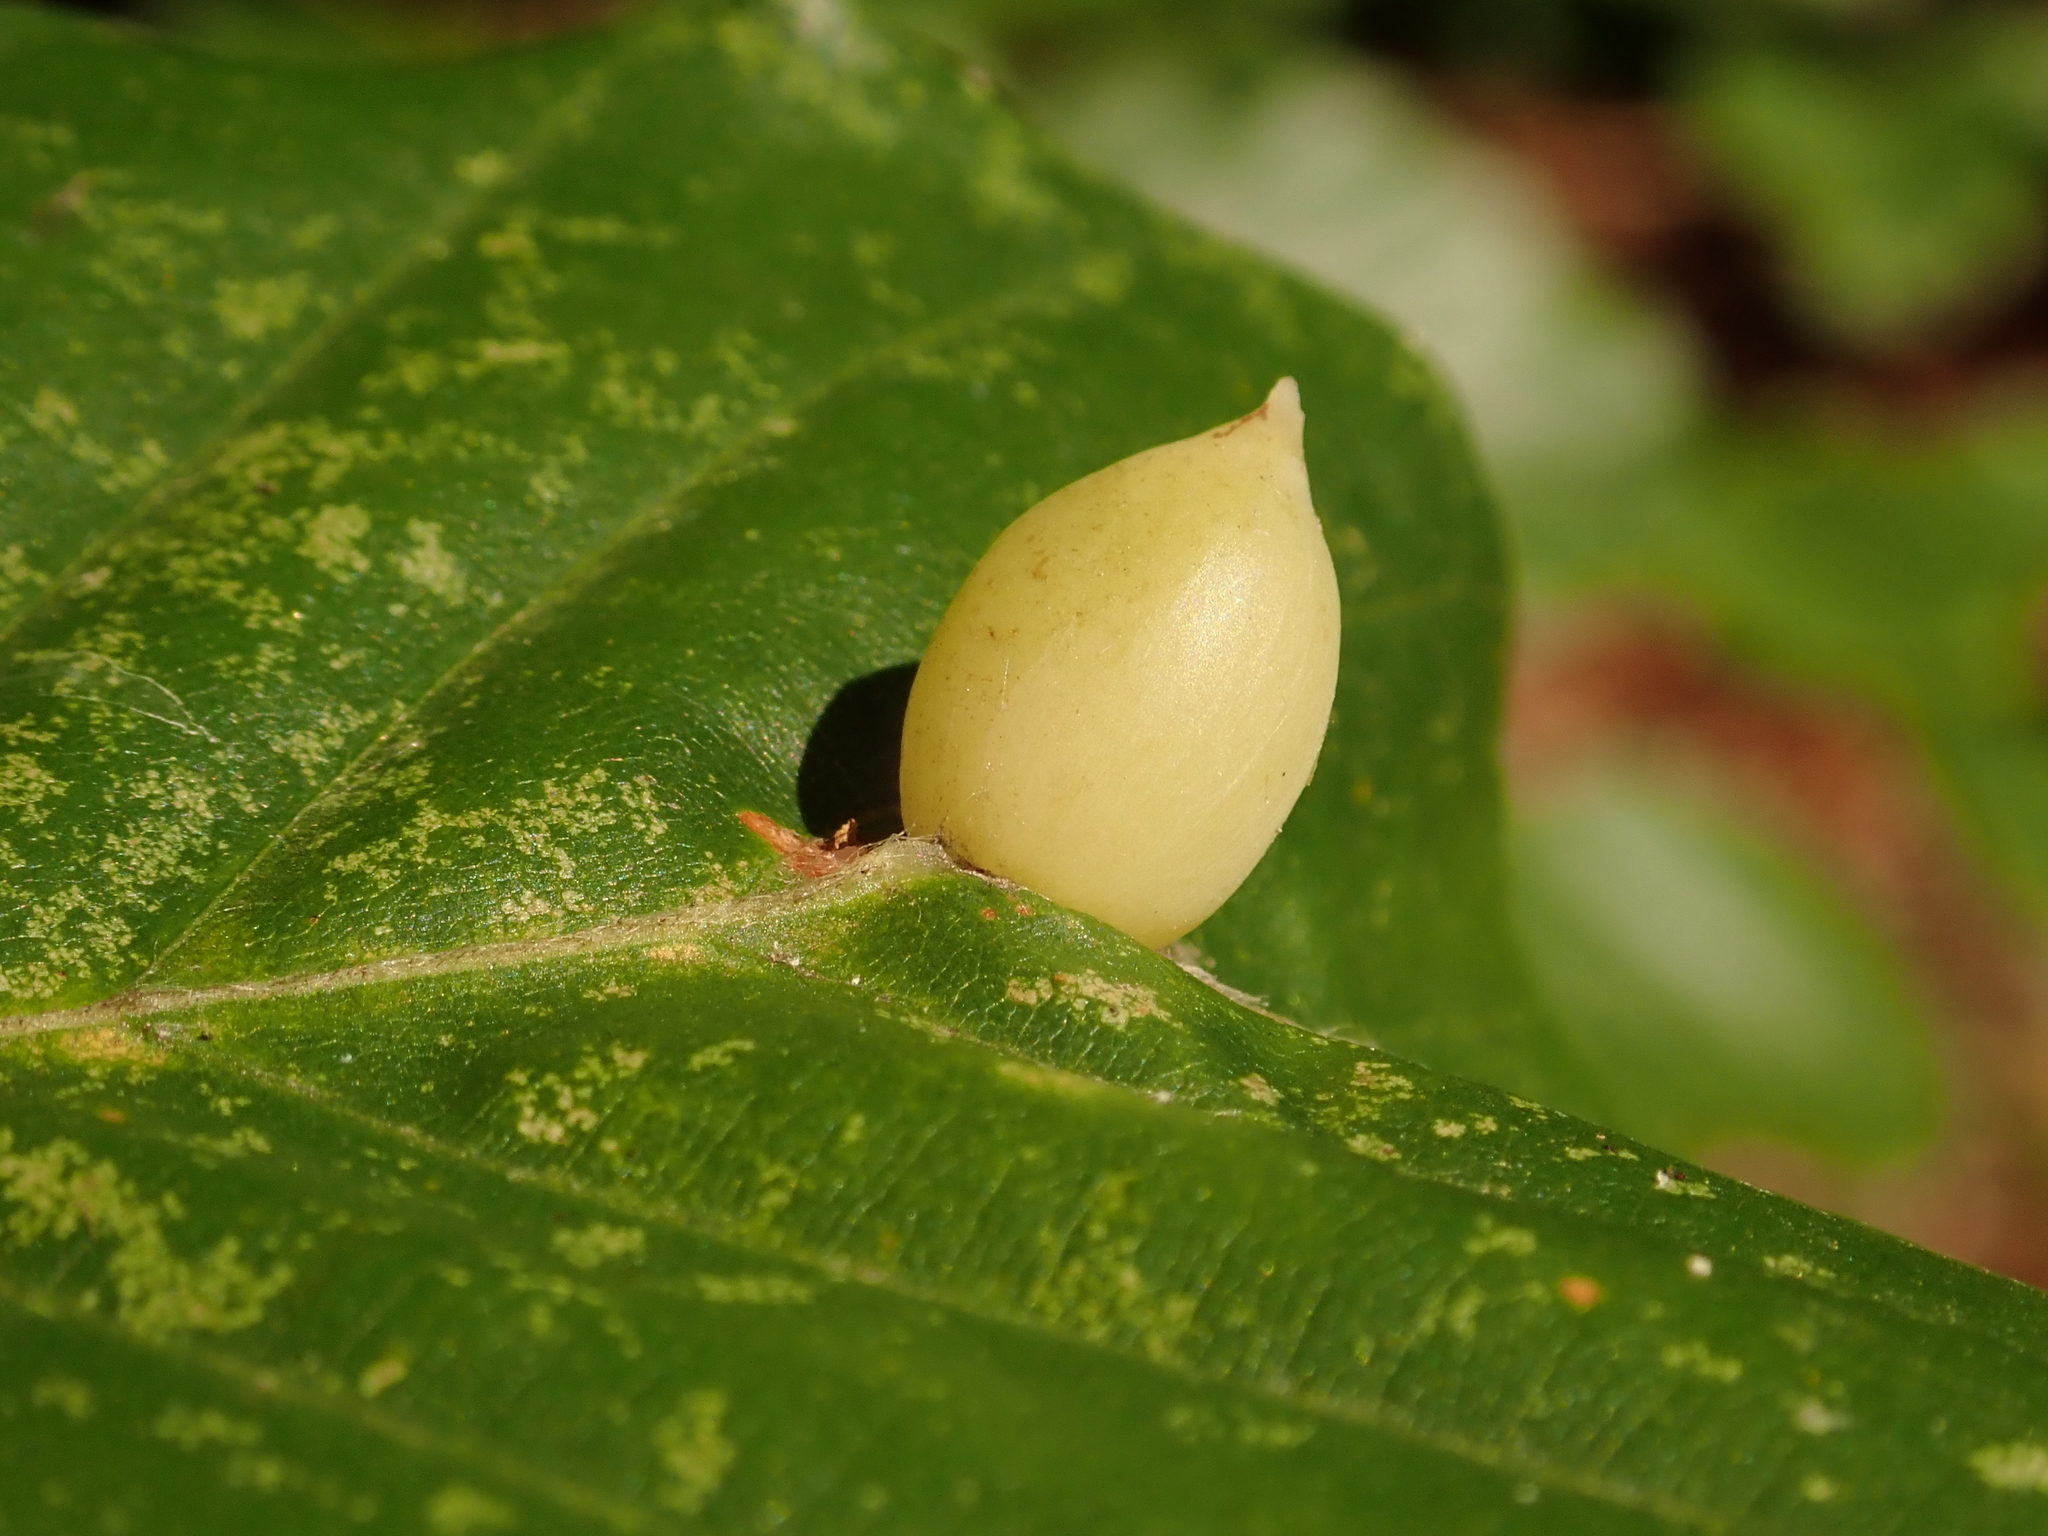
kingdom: Animalia
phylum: Arthropoda
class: Insecta
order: Diptera
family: Cecidomyiidae
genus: Mikiola
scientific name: Mikiola fagi
